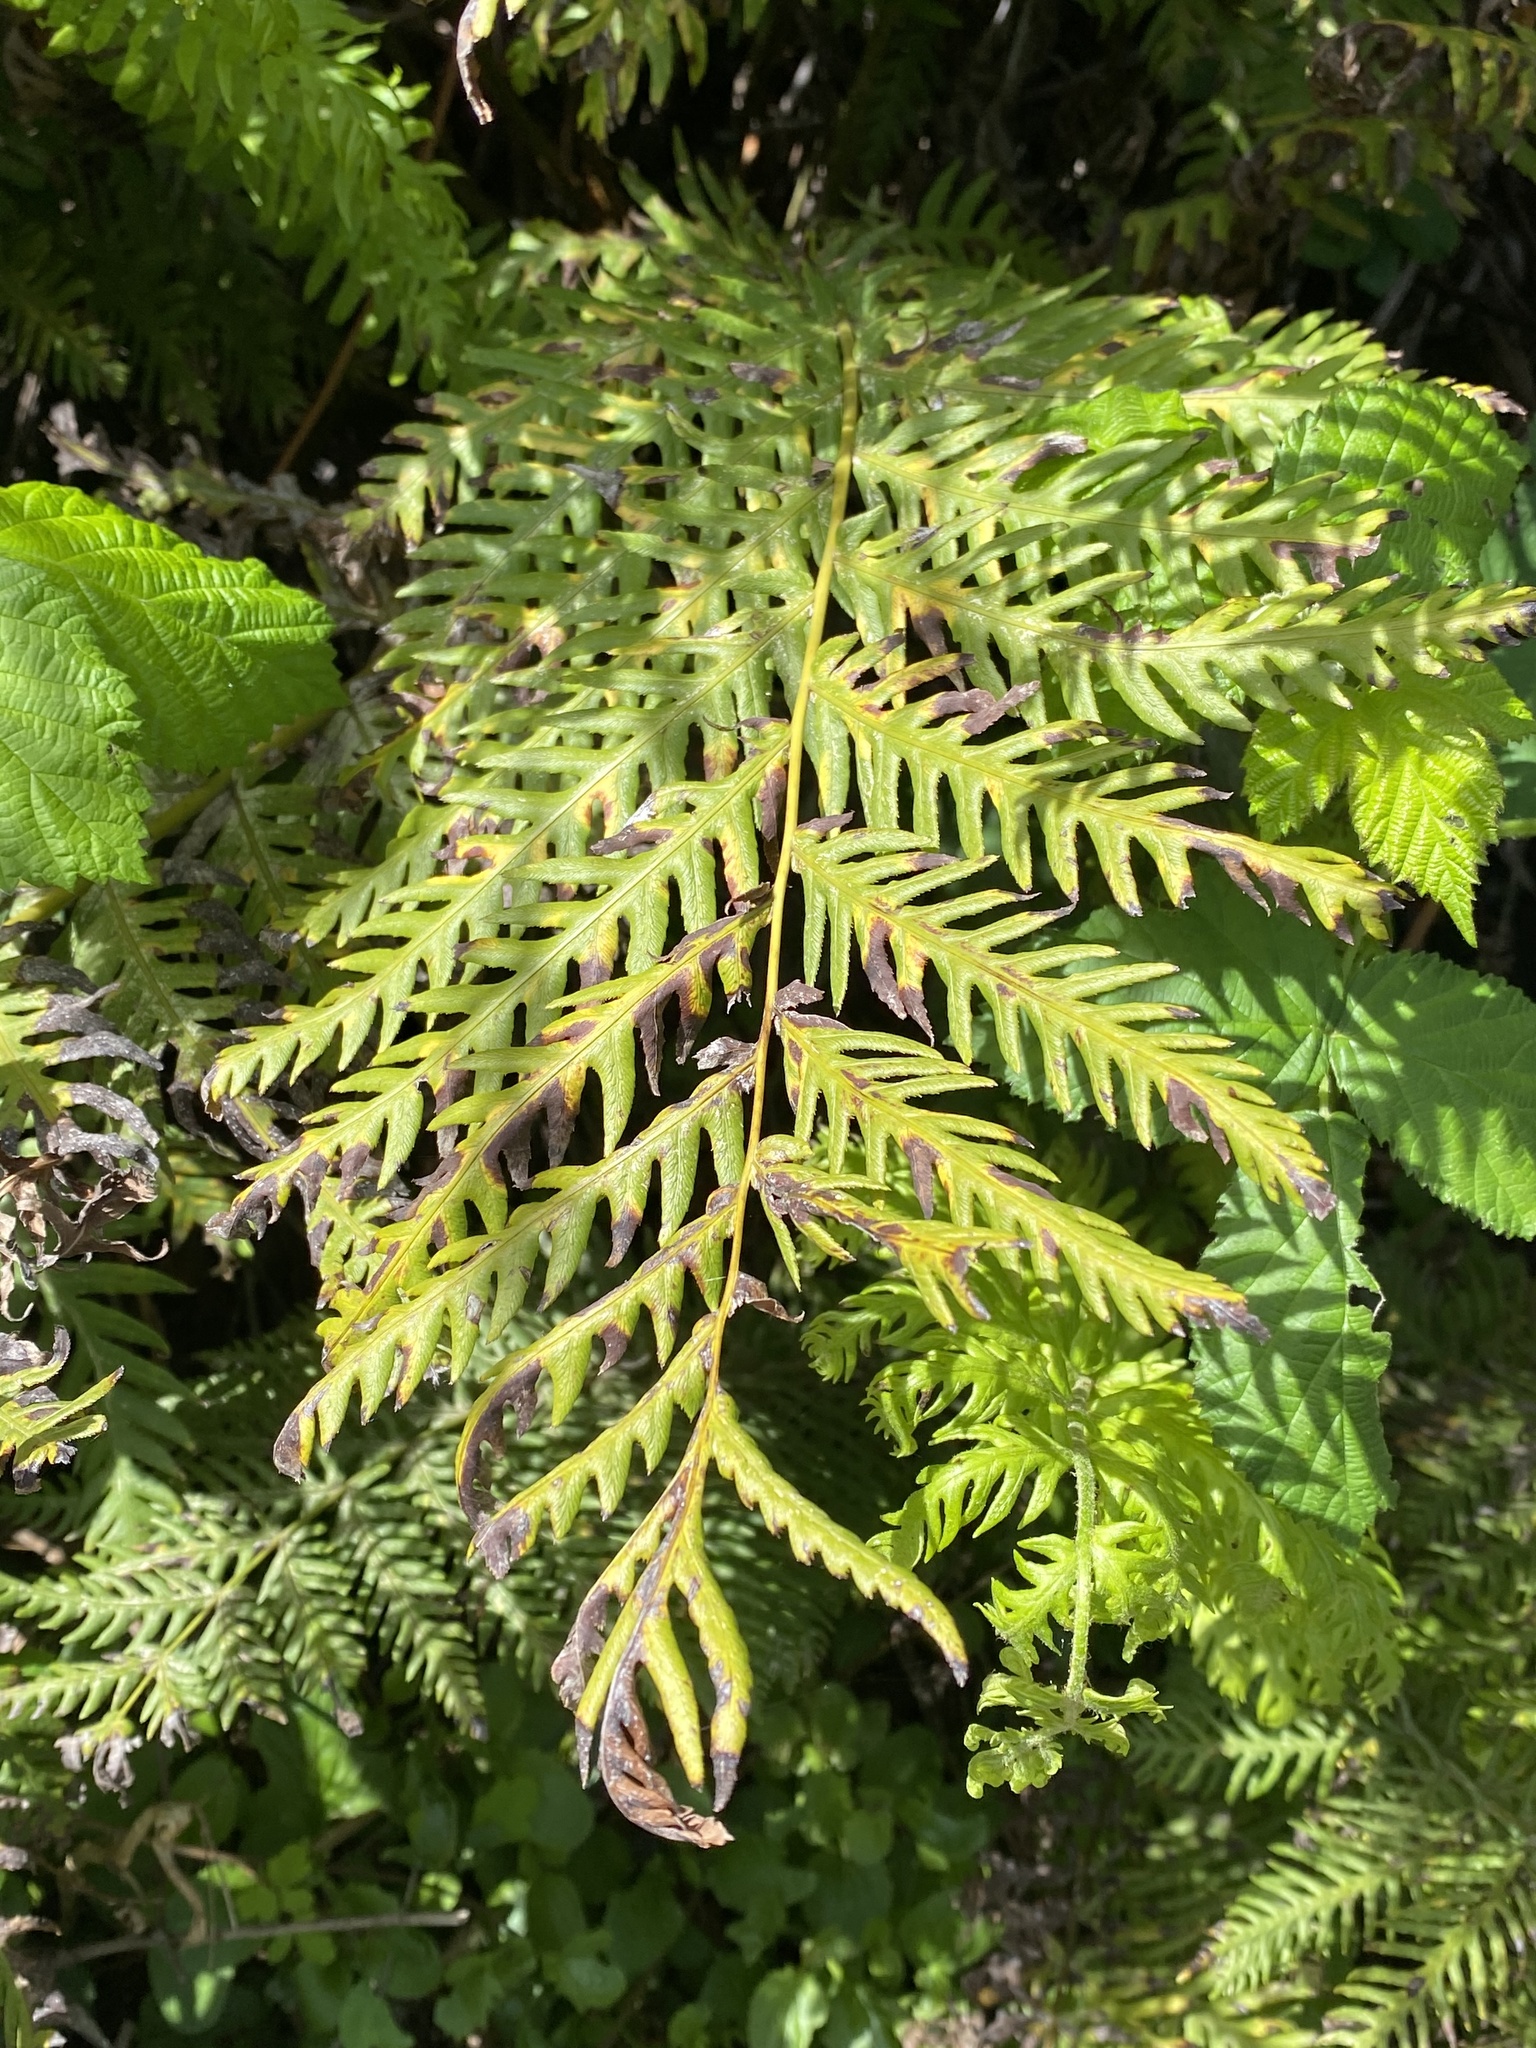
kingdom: Plantae
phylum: Tracheophyta
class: Polypodiopsida
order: Polypodiales
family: Blechnaceae
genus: Woodwardia
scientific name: Woodwardia fimbriata
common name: Giant chain fern
